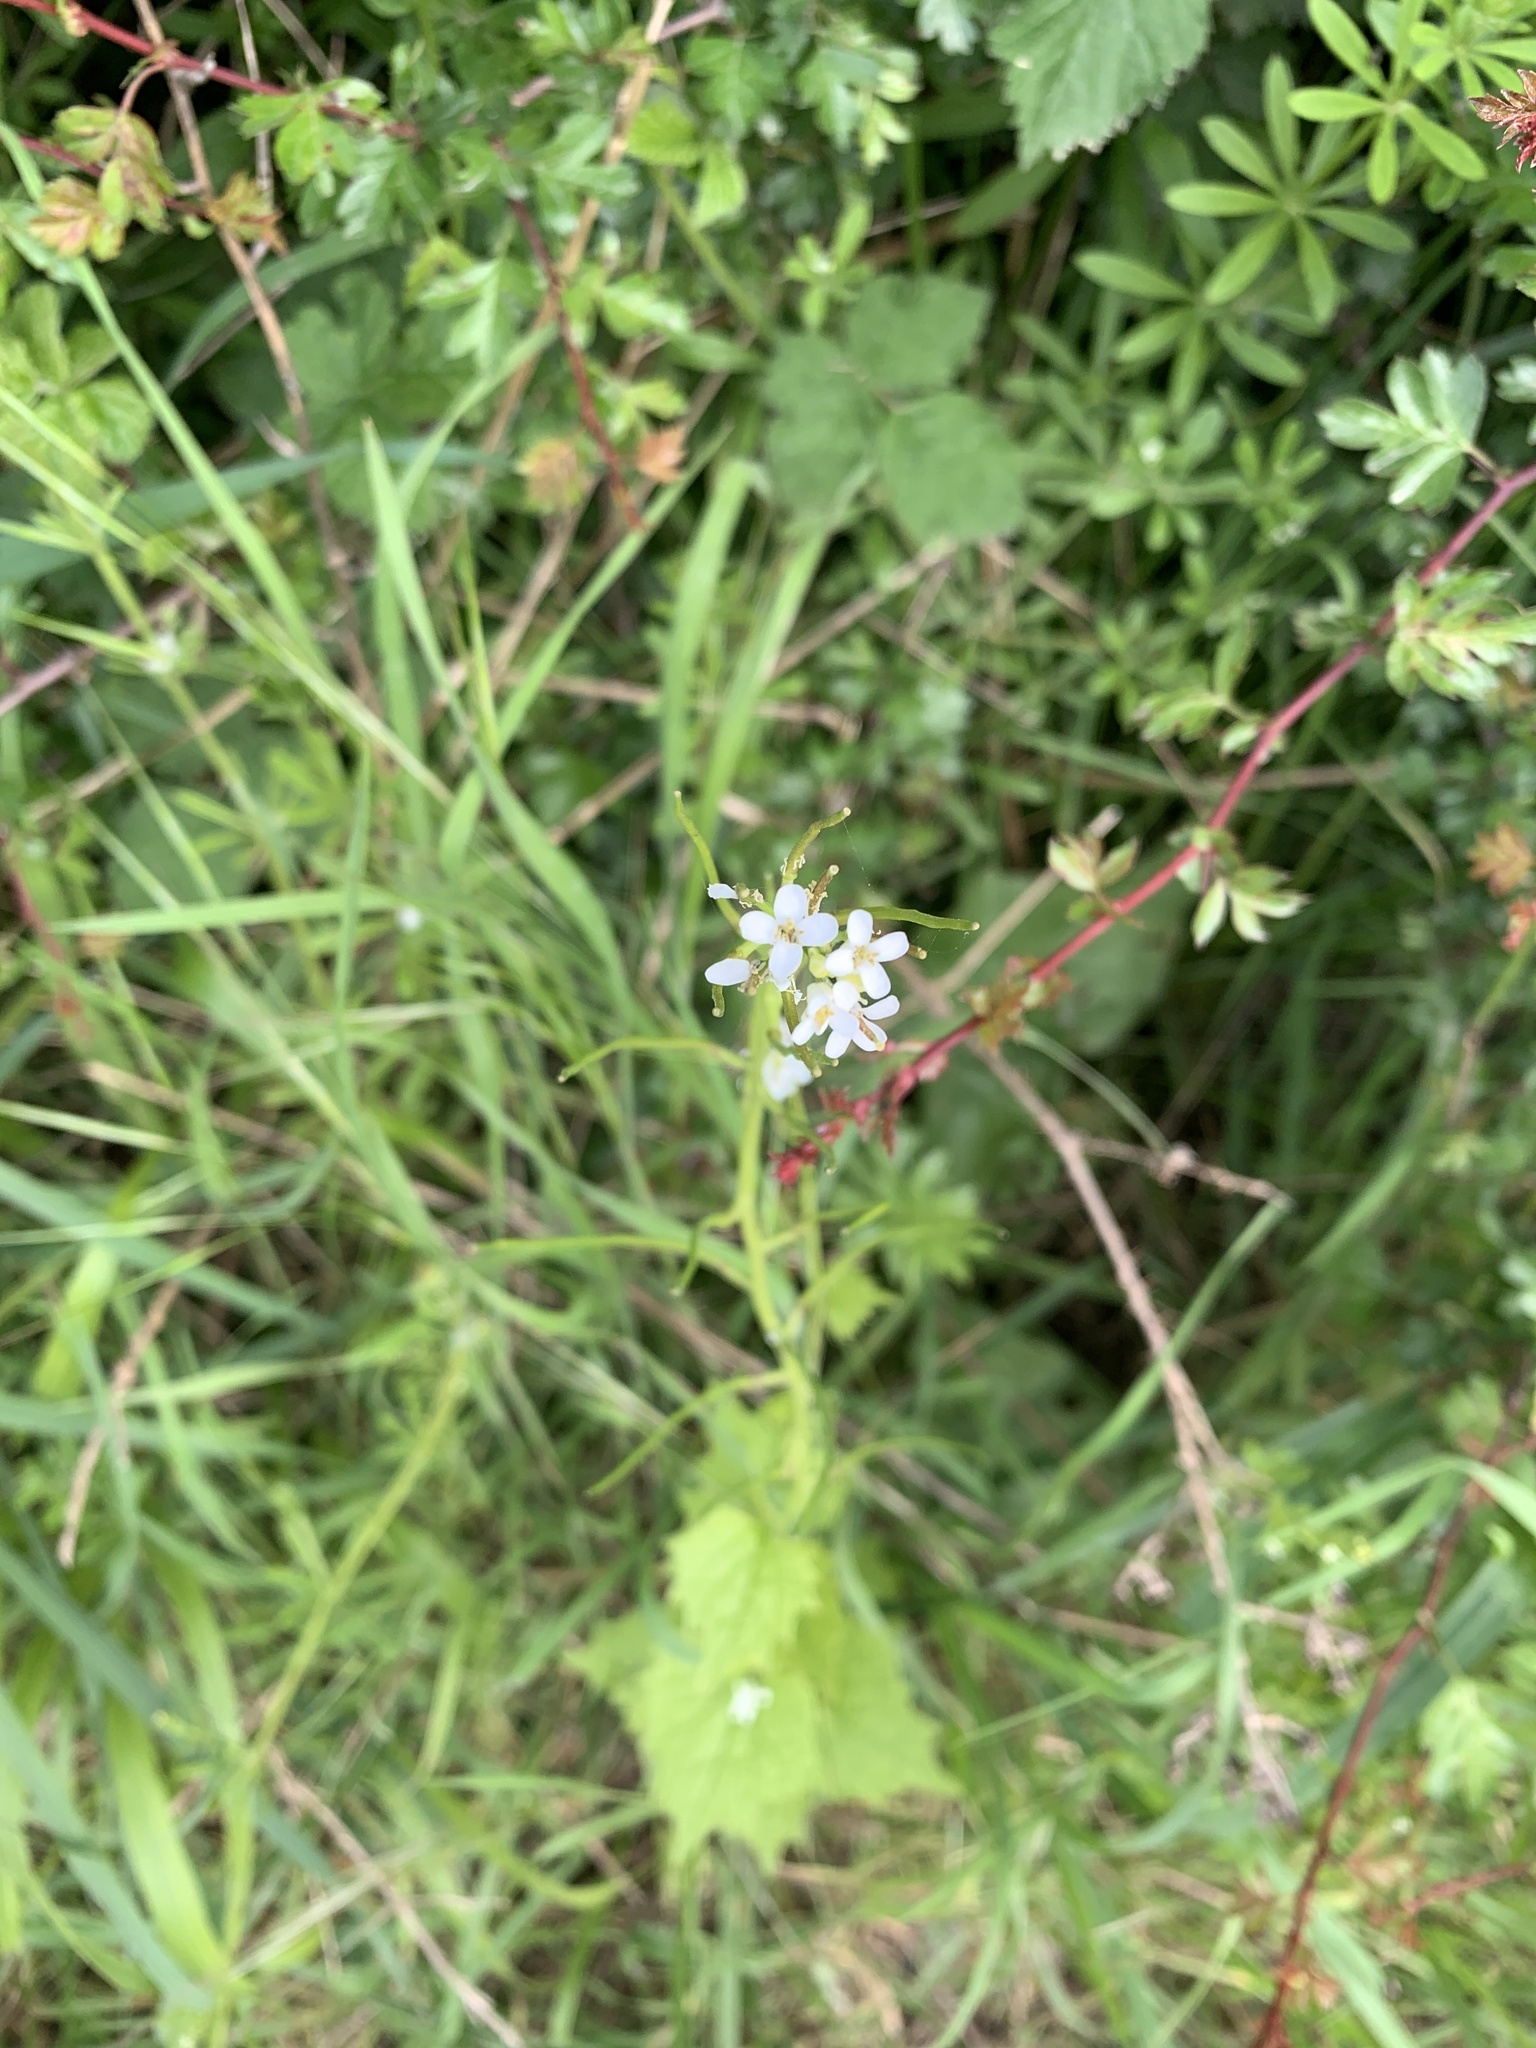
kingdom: Plantae
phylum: Tracheophyta
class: Magnoliopsida
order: Brassicales
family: Brassicaceae
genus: Alliaria
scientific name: Alliaria petiolata
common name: Garlic mustard
